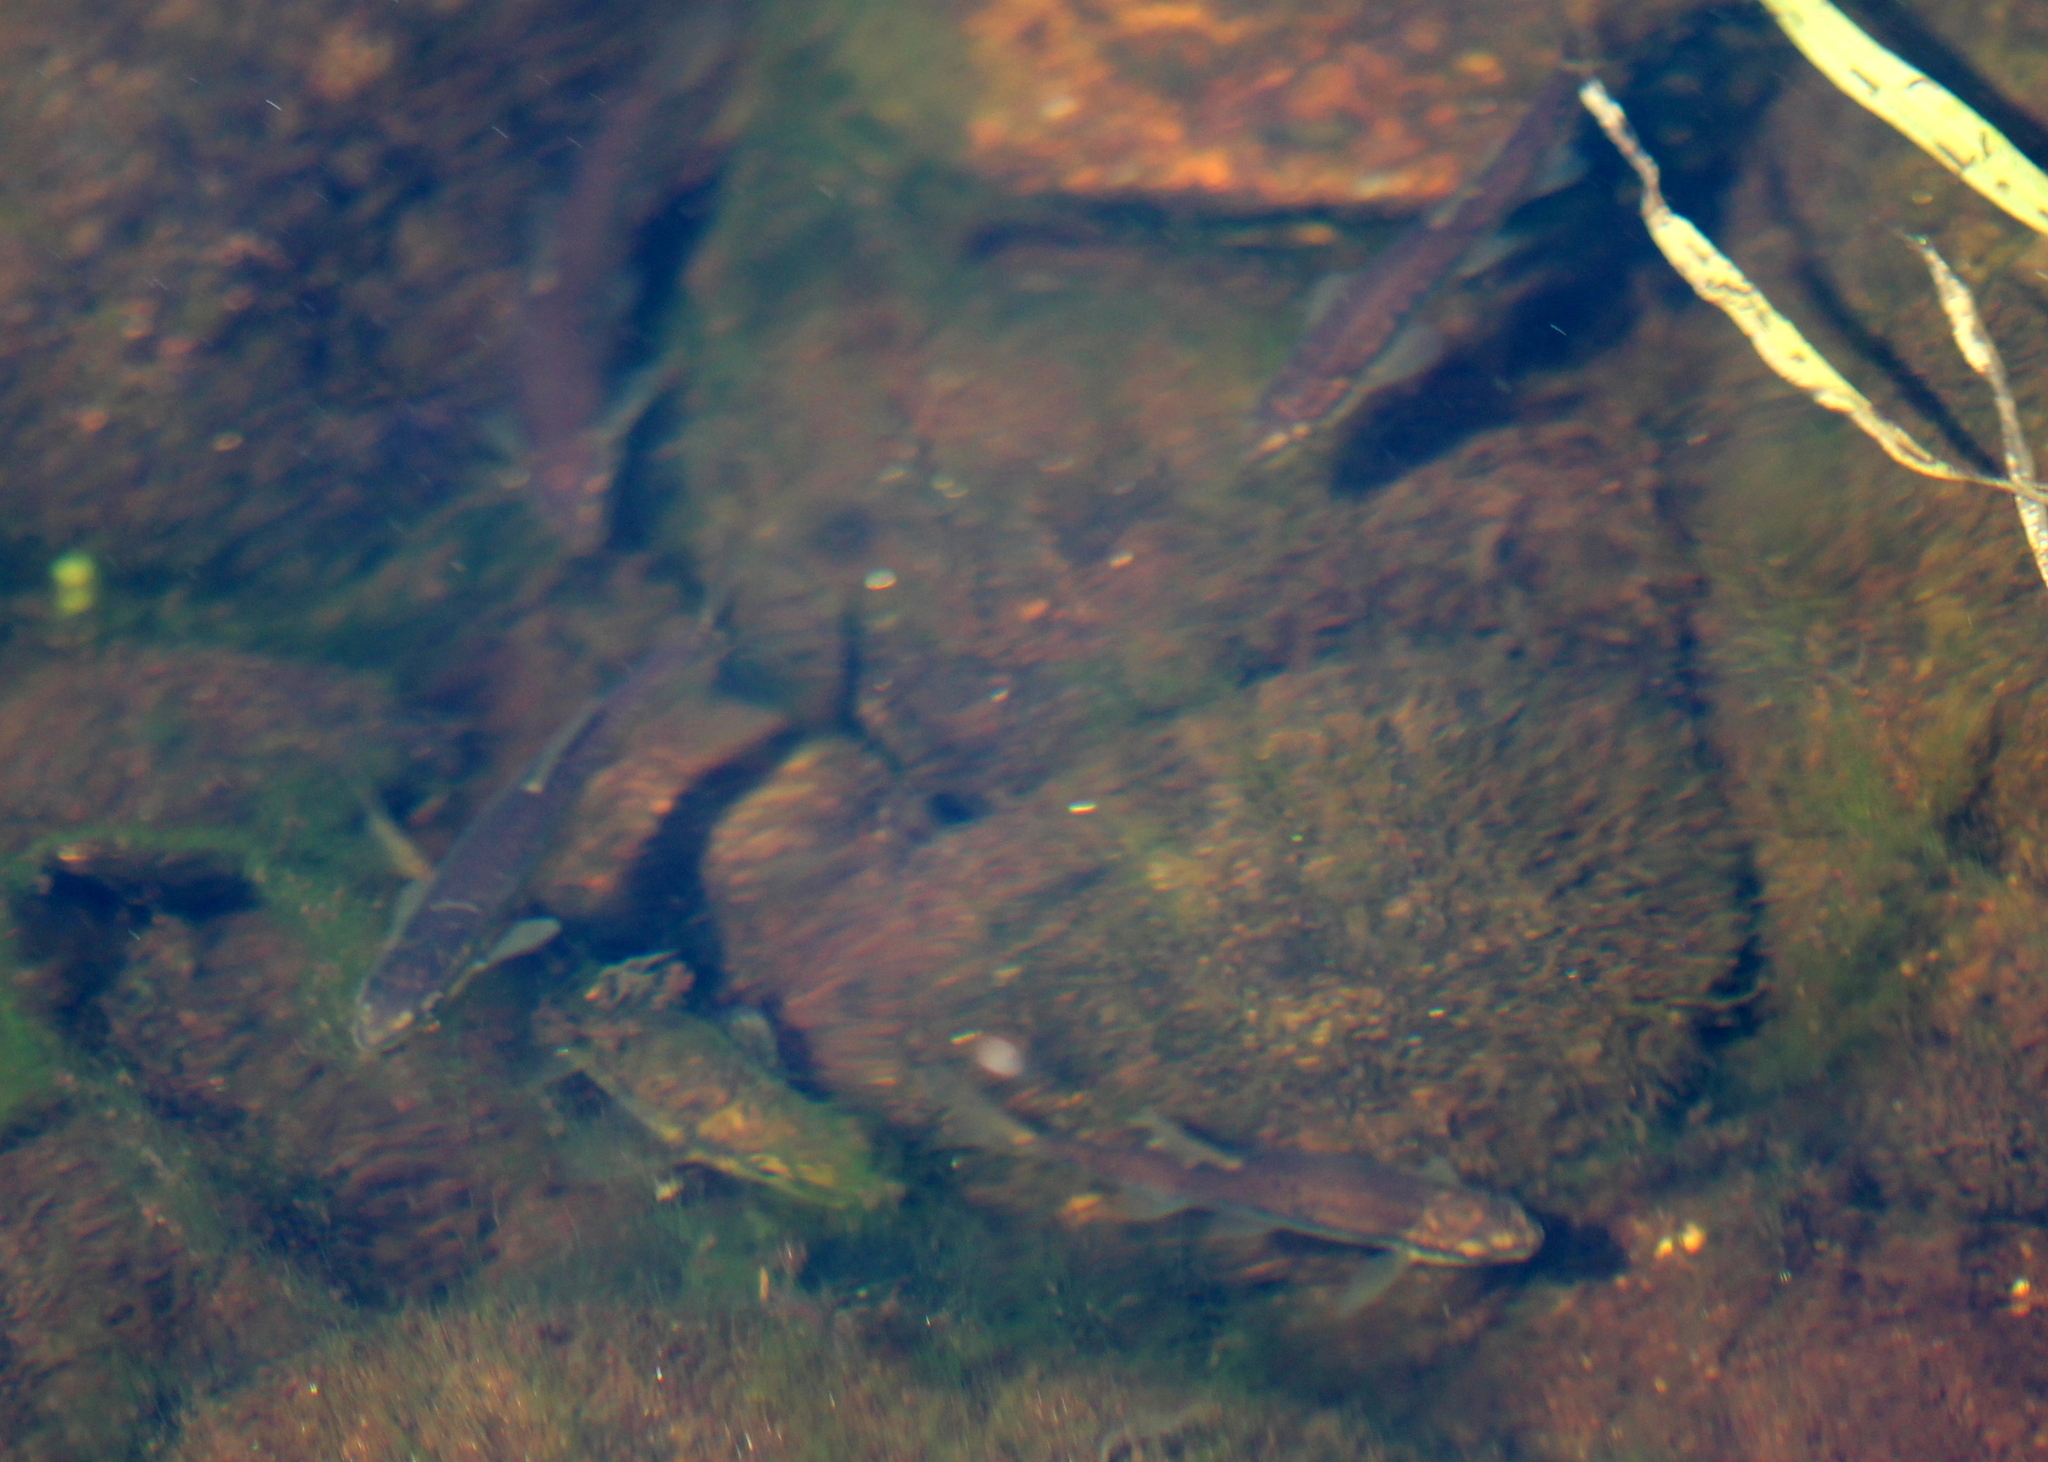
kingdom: Animalia
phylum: Chordata
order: Cypriniformes
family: Cyprinidae
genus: Rhinichthys
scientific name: Rhinichthys atratulus
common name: Eastern blacknose dace
